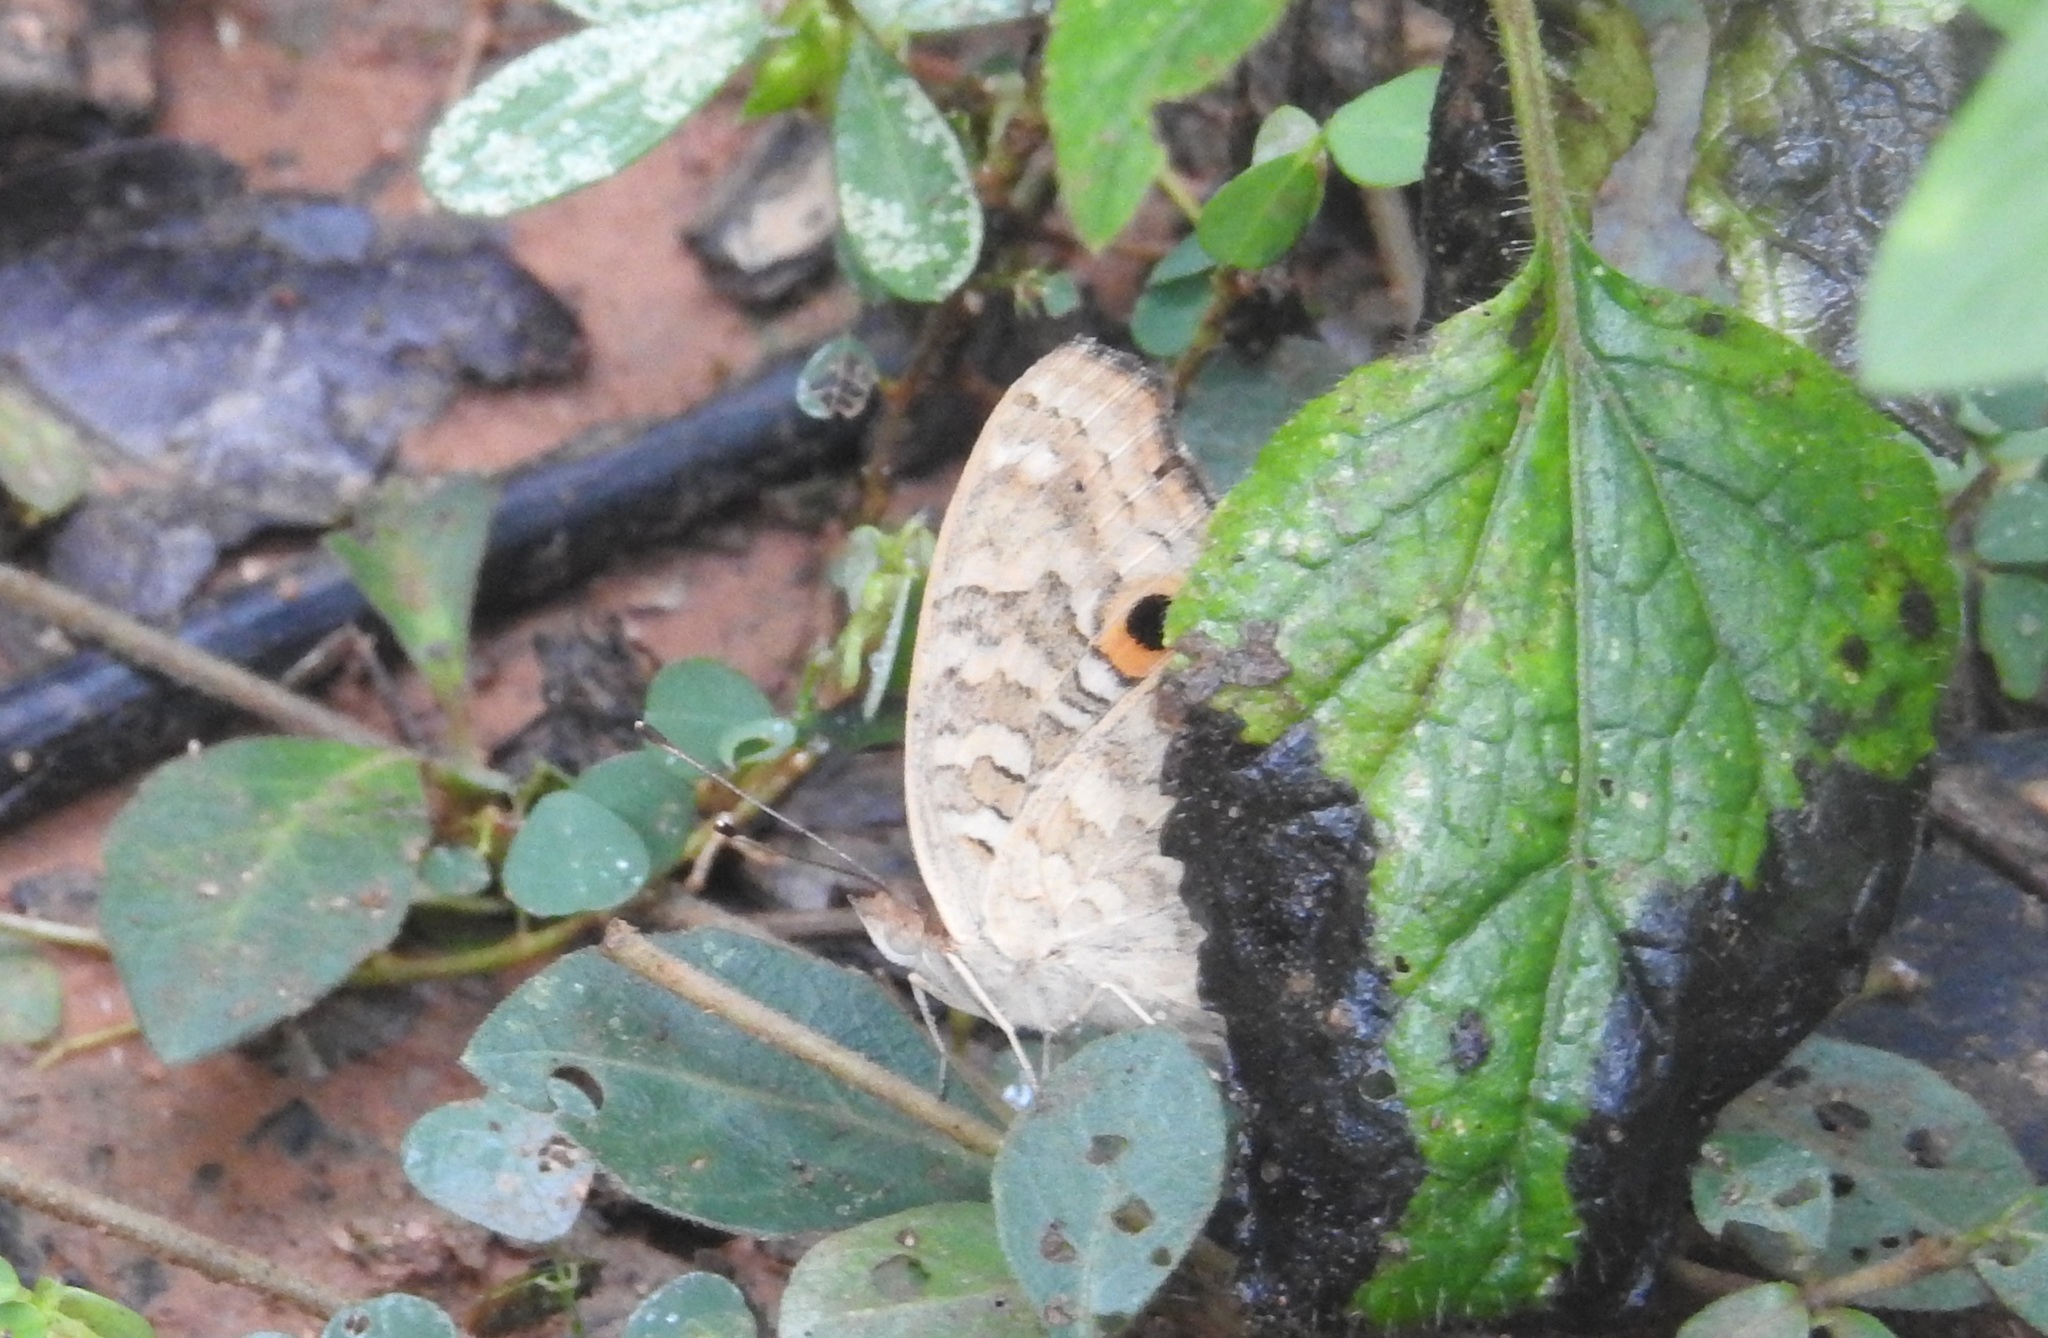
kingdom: Animalia
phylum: Arthropoda
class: Insecta
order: Lepidoptera
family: Nymphalidae
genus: Junonia
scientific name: Junonia lemonias
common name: Lemon pansy
